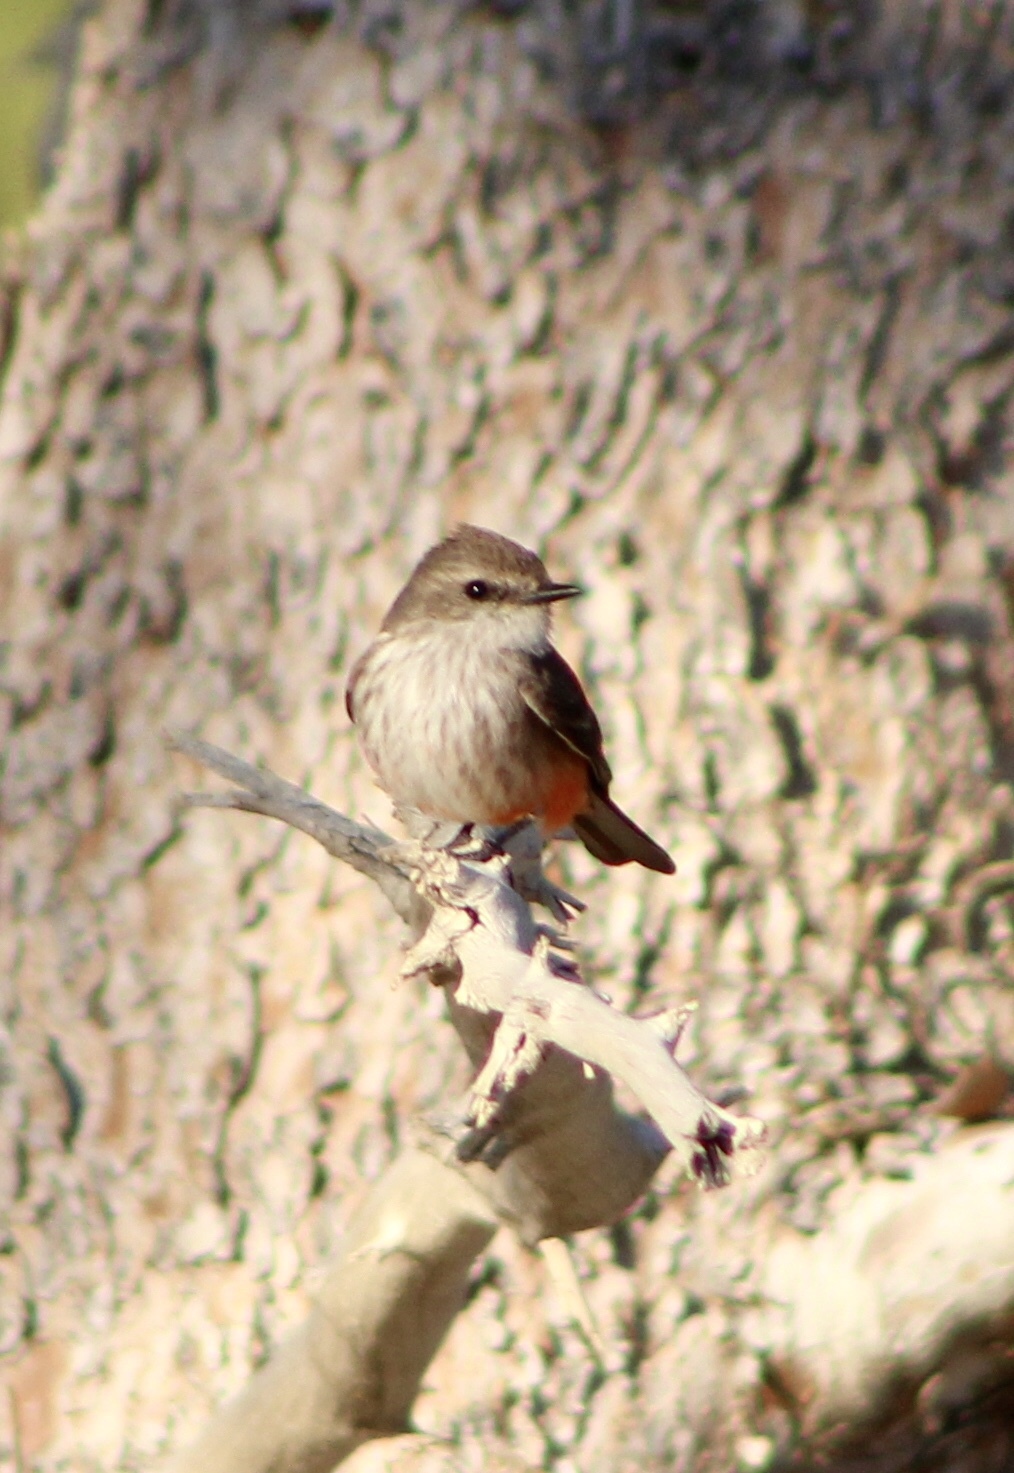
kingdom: Animalia
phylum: Chordata
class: Aves
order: Passeriformes
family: Tyrannidae
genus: Pyrocephalus
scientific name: Pyrocephalus rubinus
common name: Vermilion flycatcher
